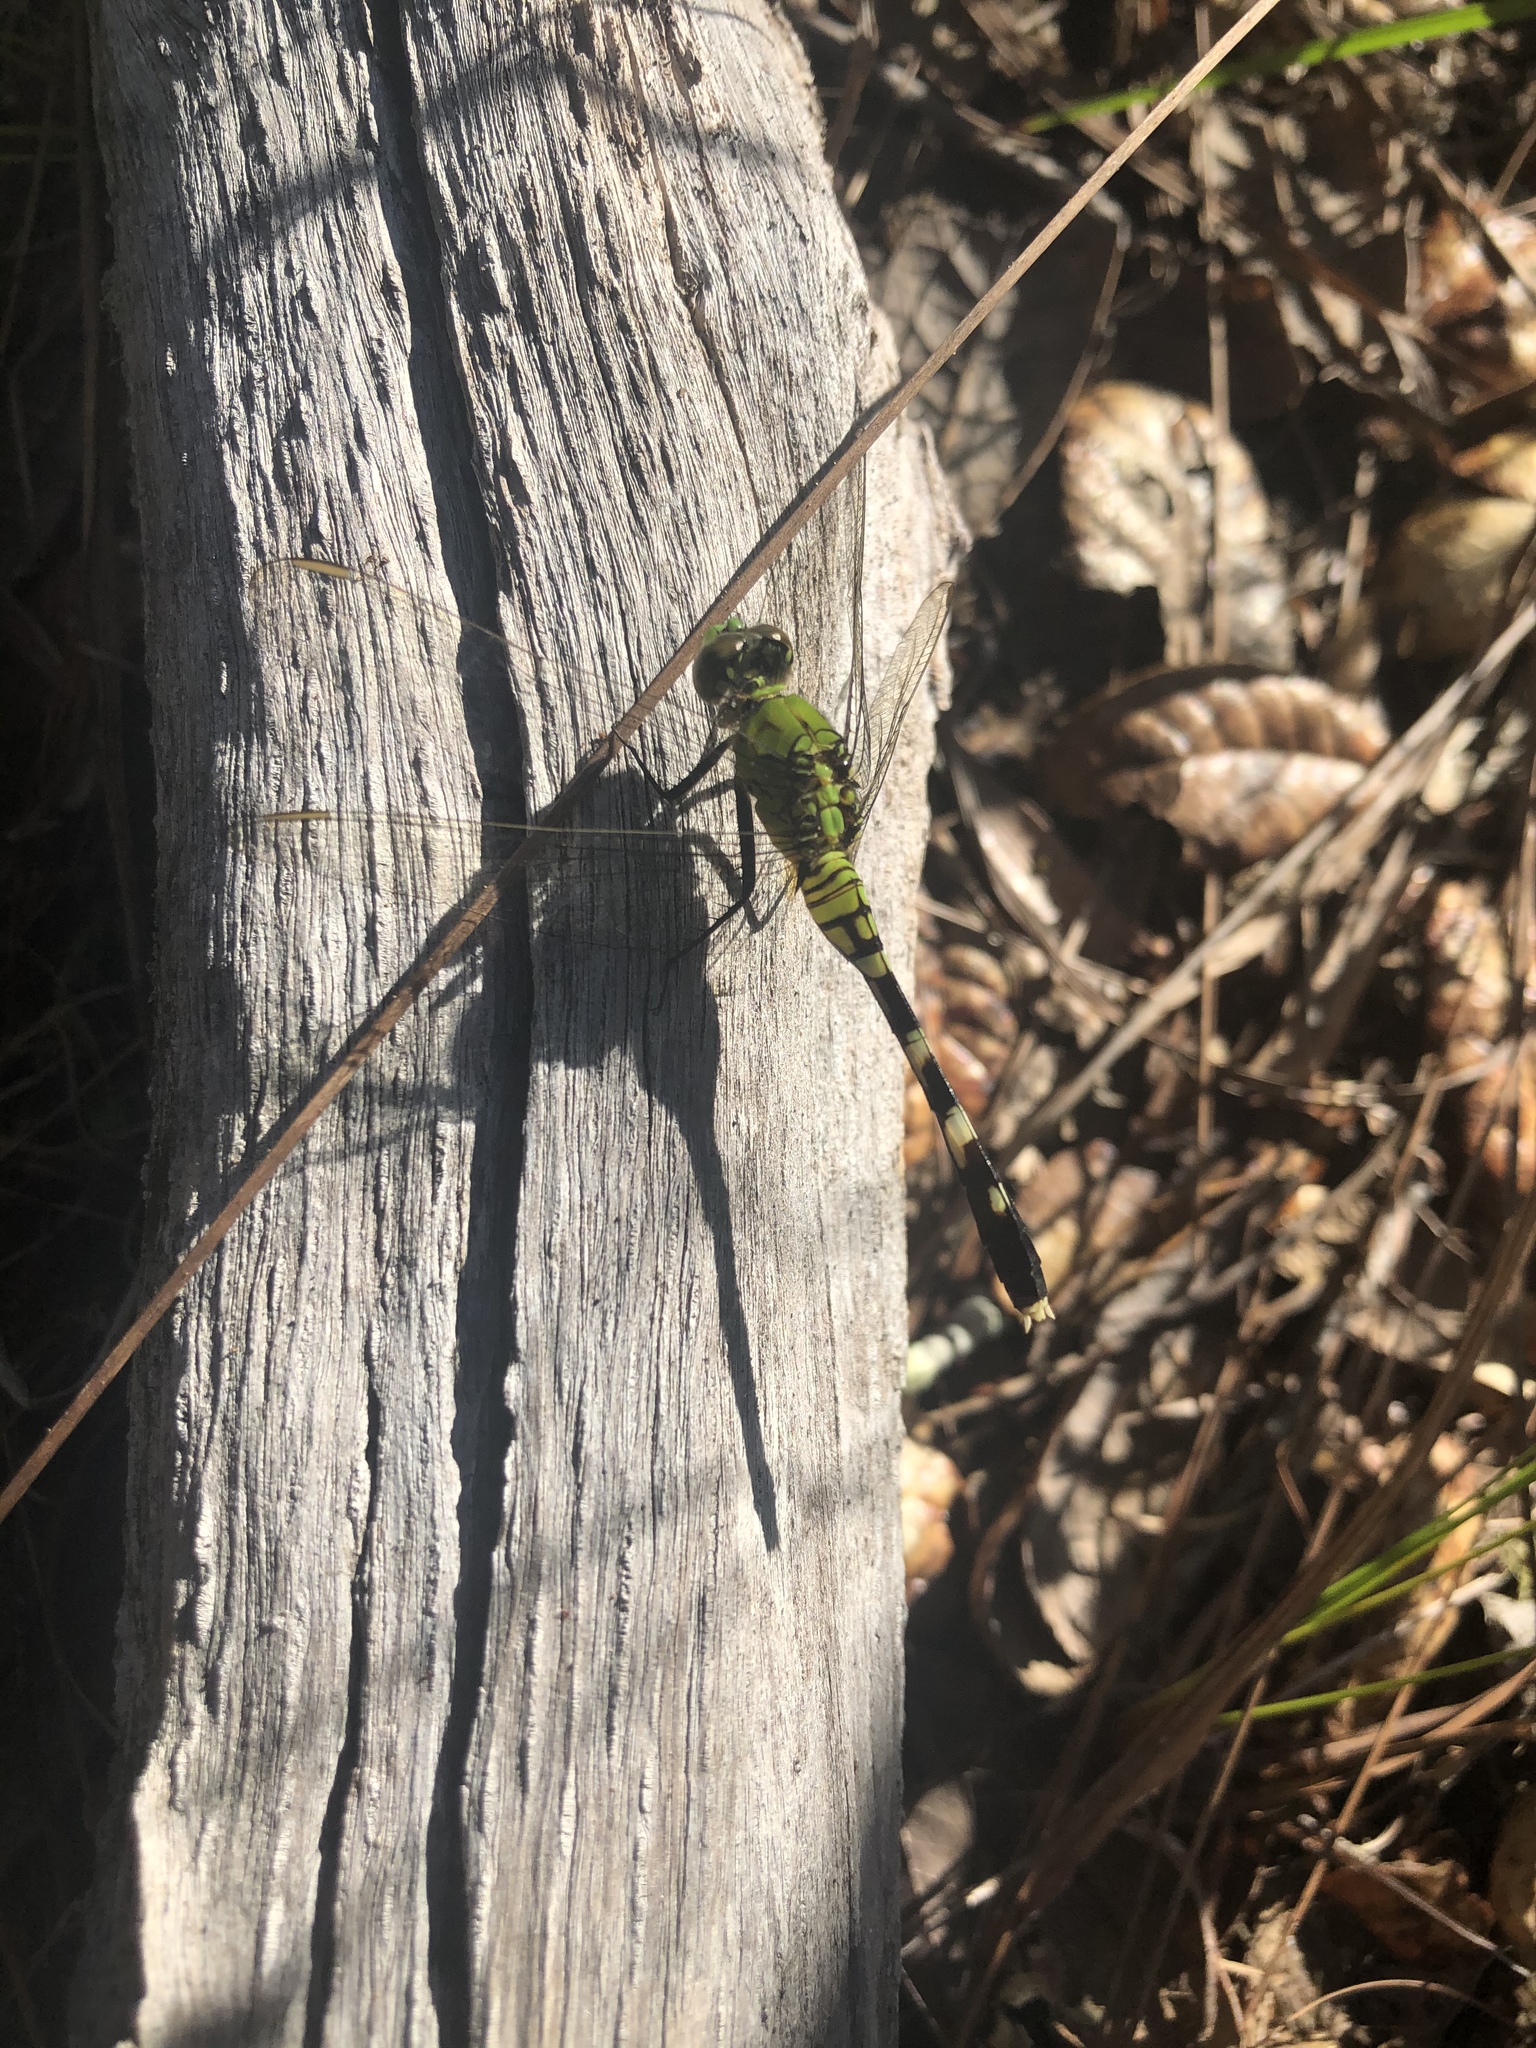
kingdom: Animalia
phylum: Arthropoda
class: Insecta
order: Odonata
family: Libellulidae
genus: Erythemis
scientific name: Erythemis simplicicollis
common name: Eastern pondhawk
